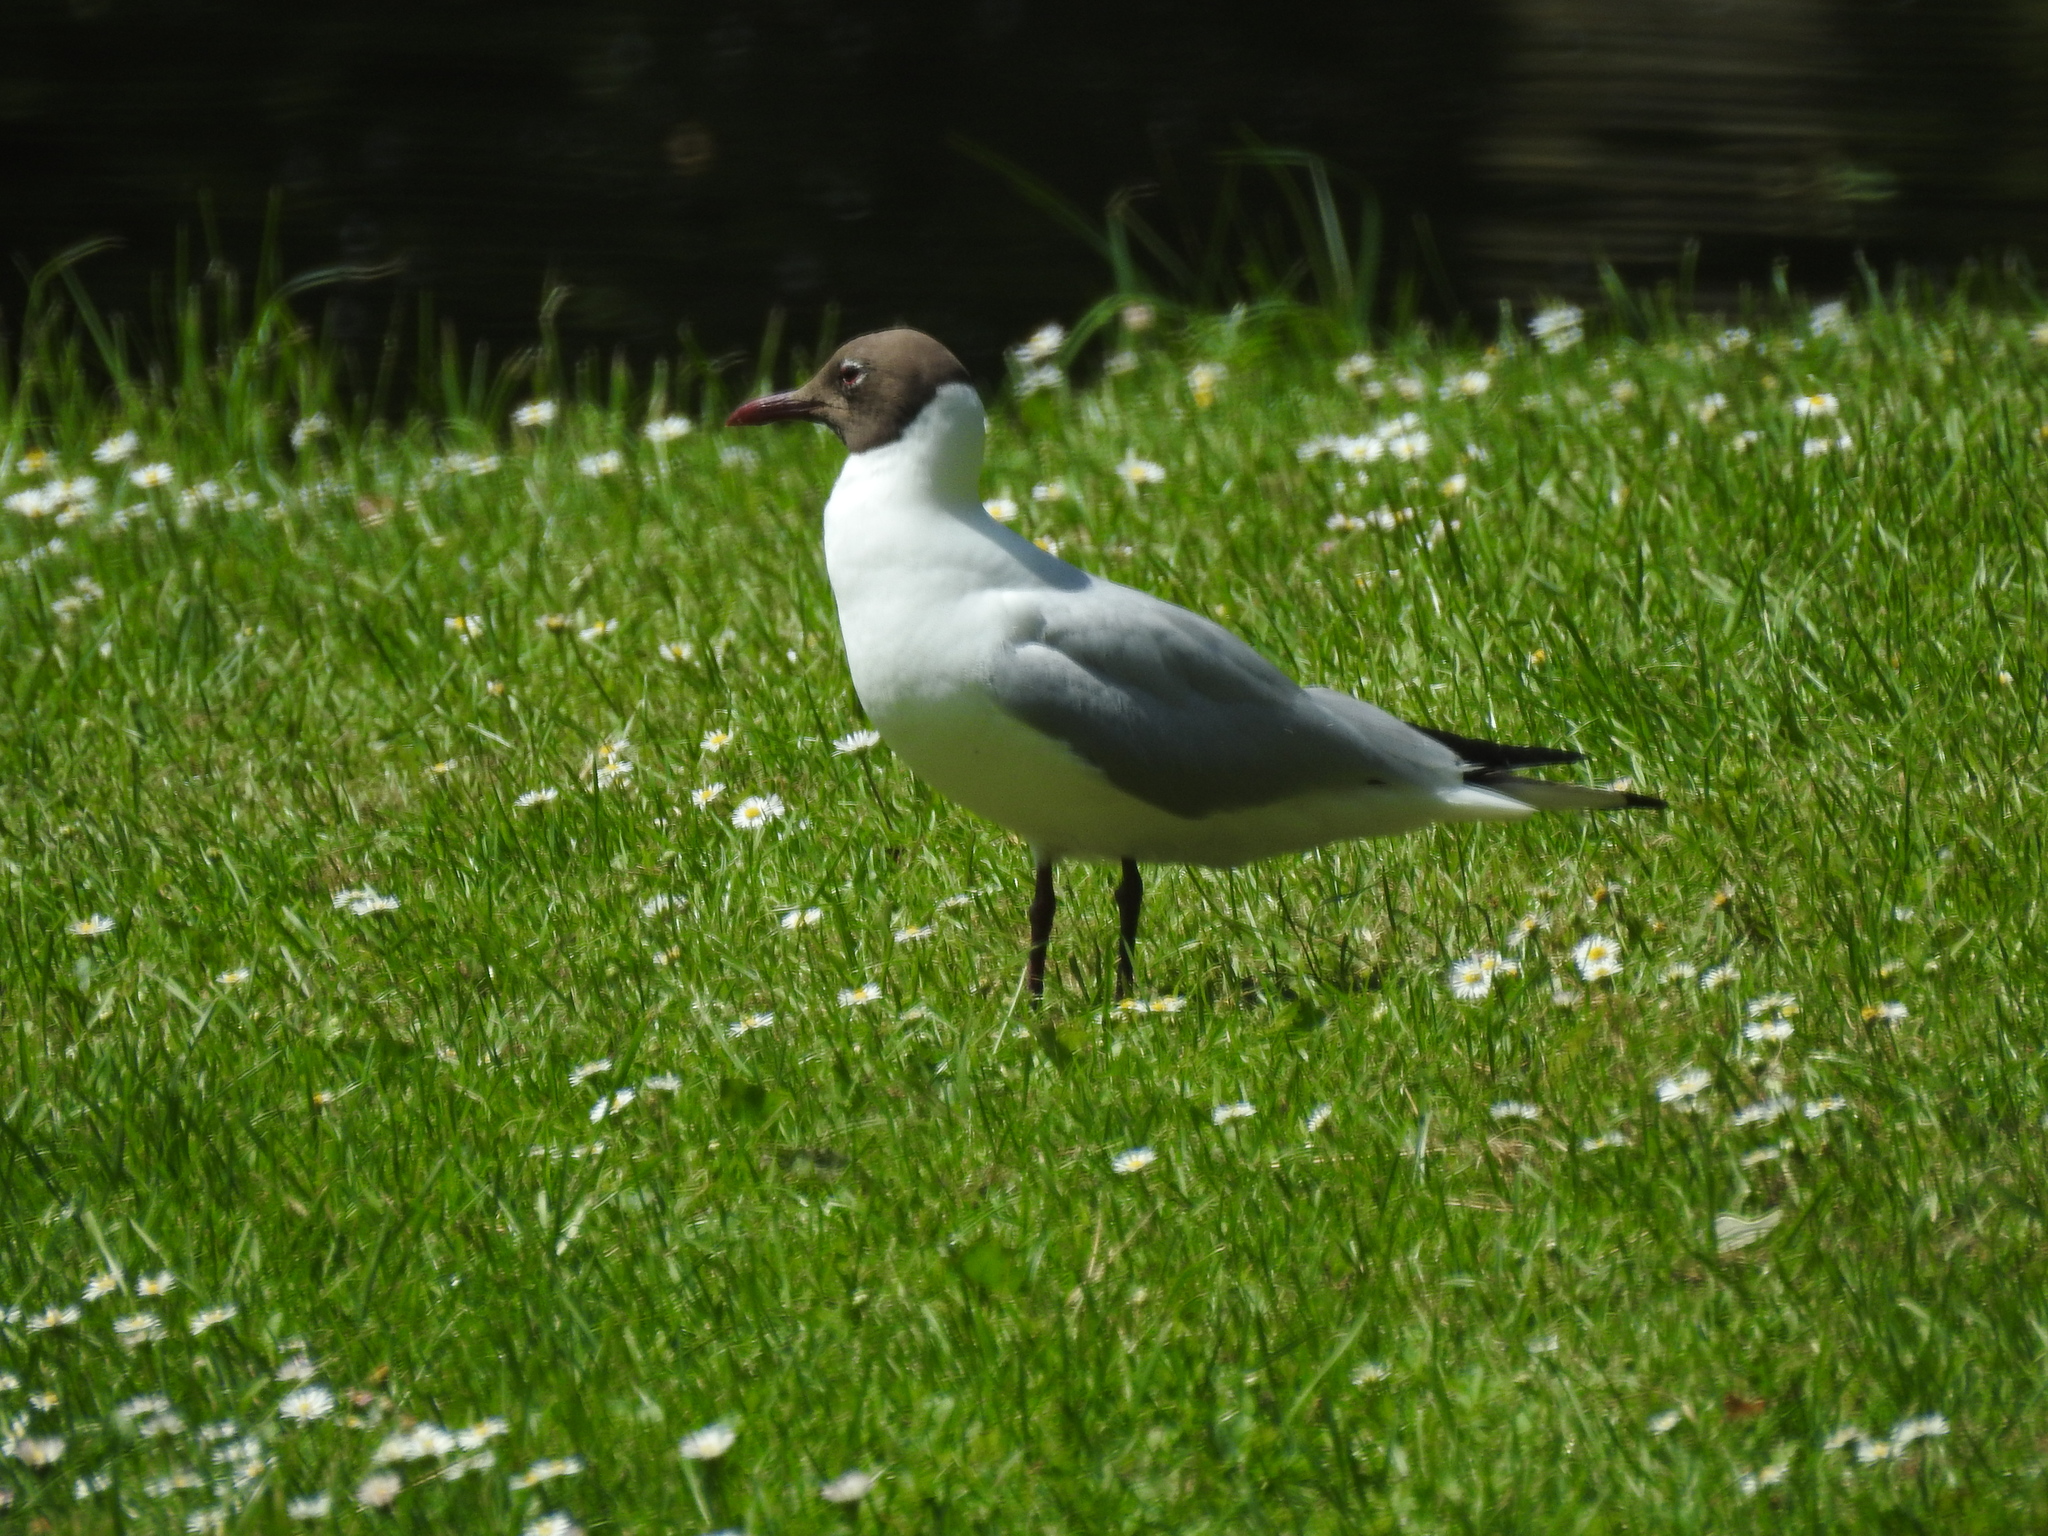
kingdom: Animalia
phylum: Chordata
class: Aves
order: Charadriiformes
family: Laridae
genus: Chroicocephalus
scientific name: Chroicocephalus ridibundus
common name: Black-headed gull
